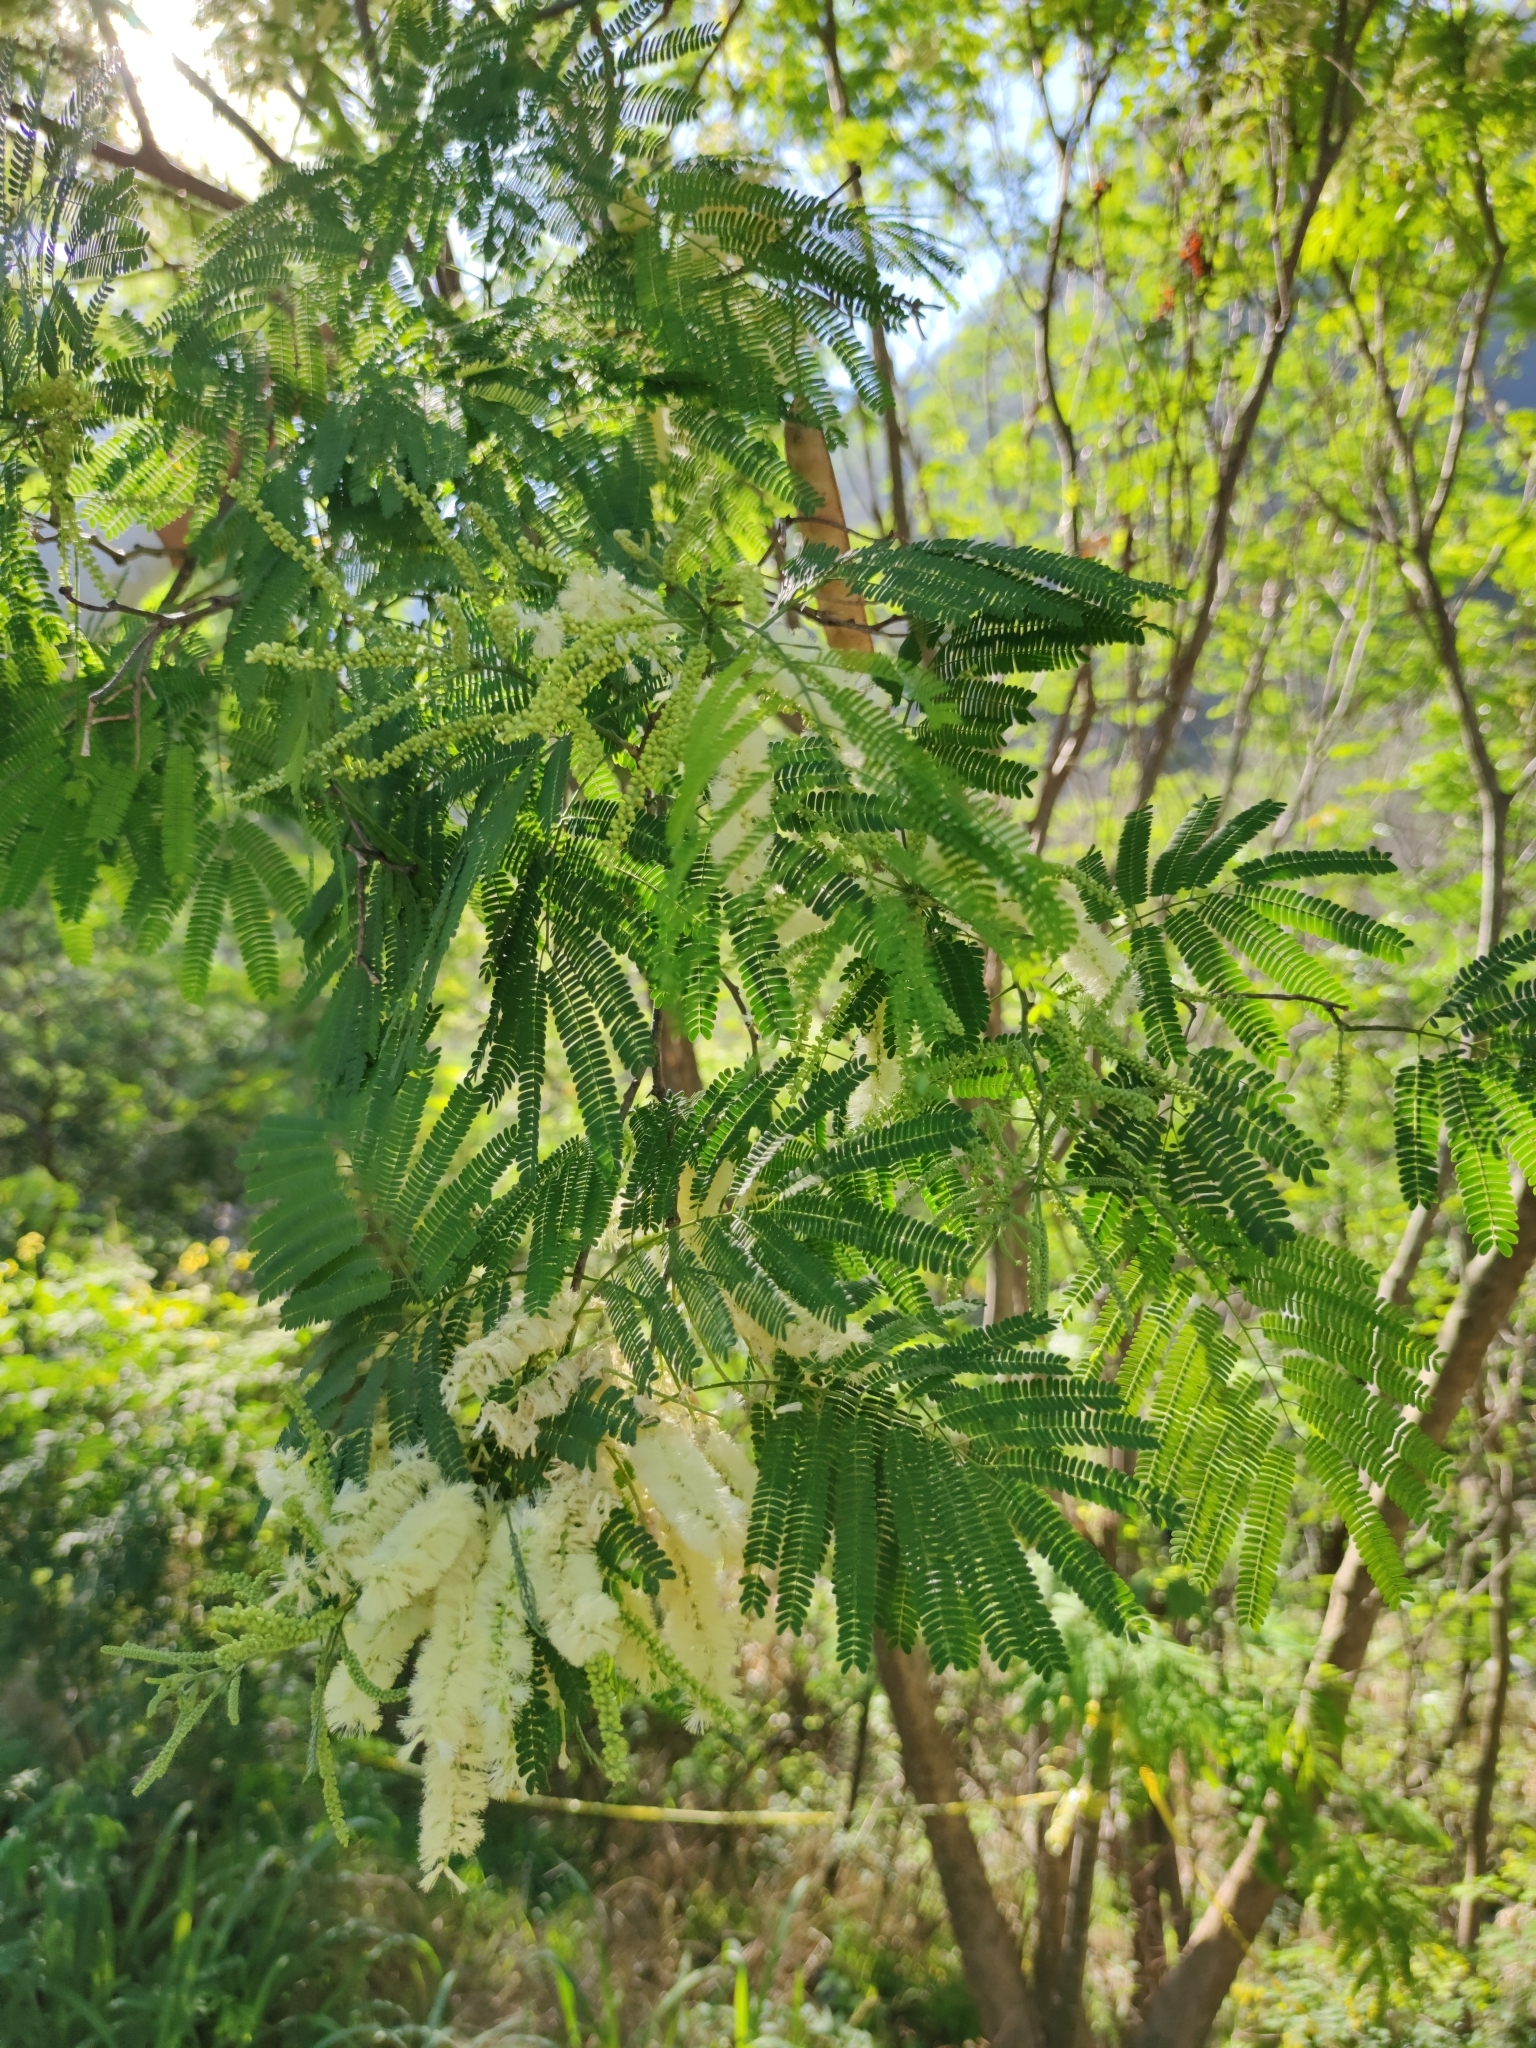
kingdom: Plantae
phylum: Tracheophyta
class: Magnoliopsida
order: Fabales
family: Fabaceae
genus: Mariosousa
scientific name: Mariosousa coulteri
